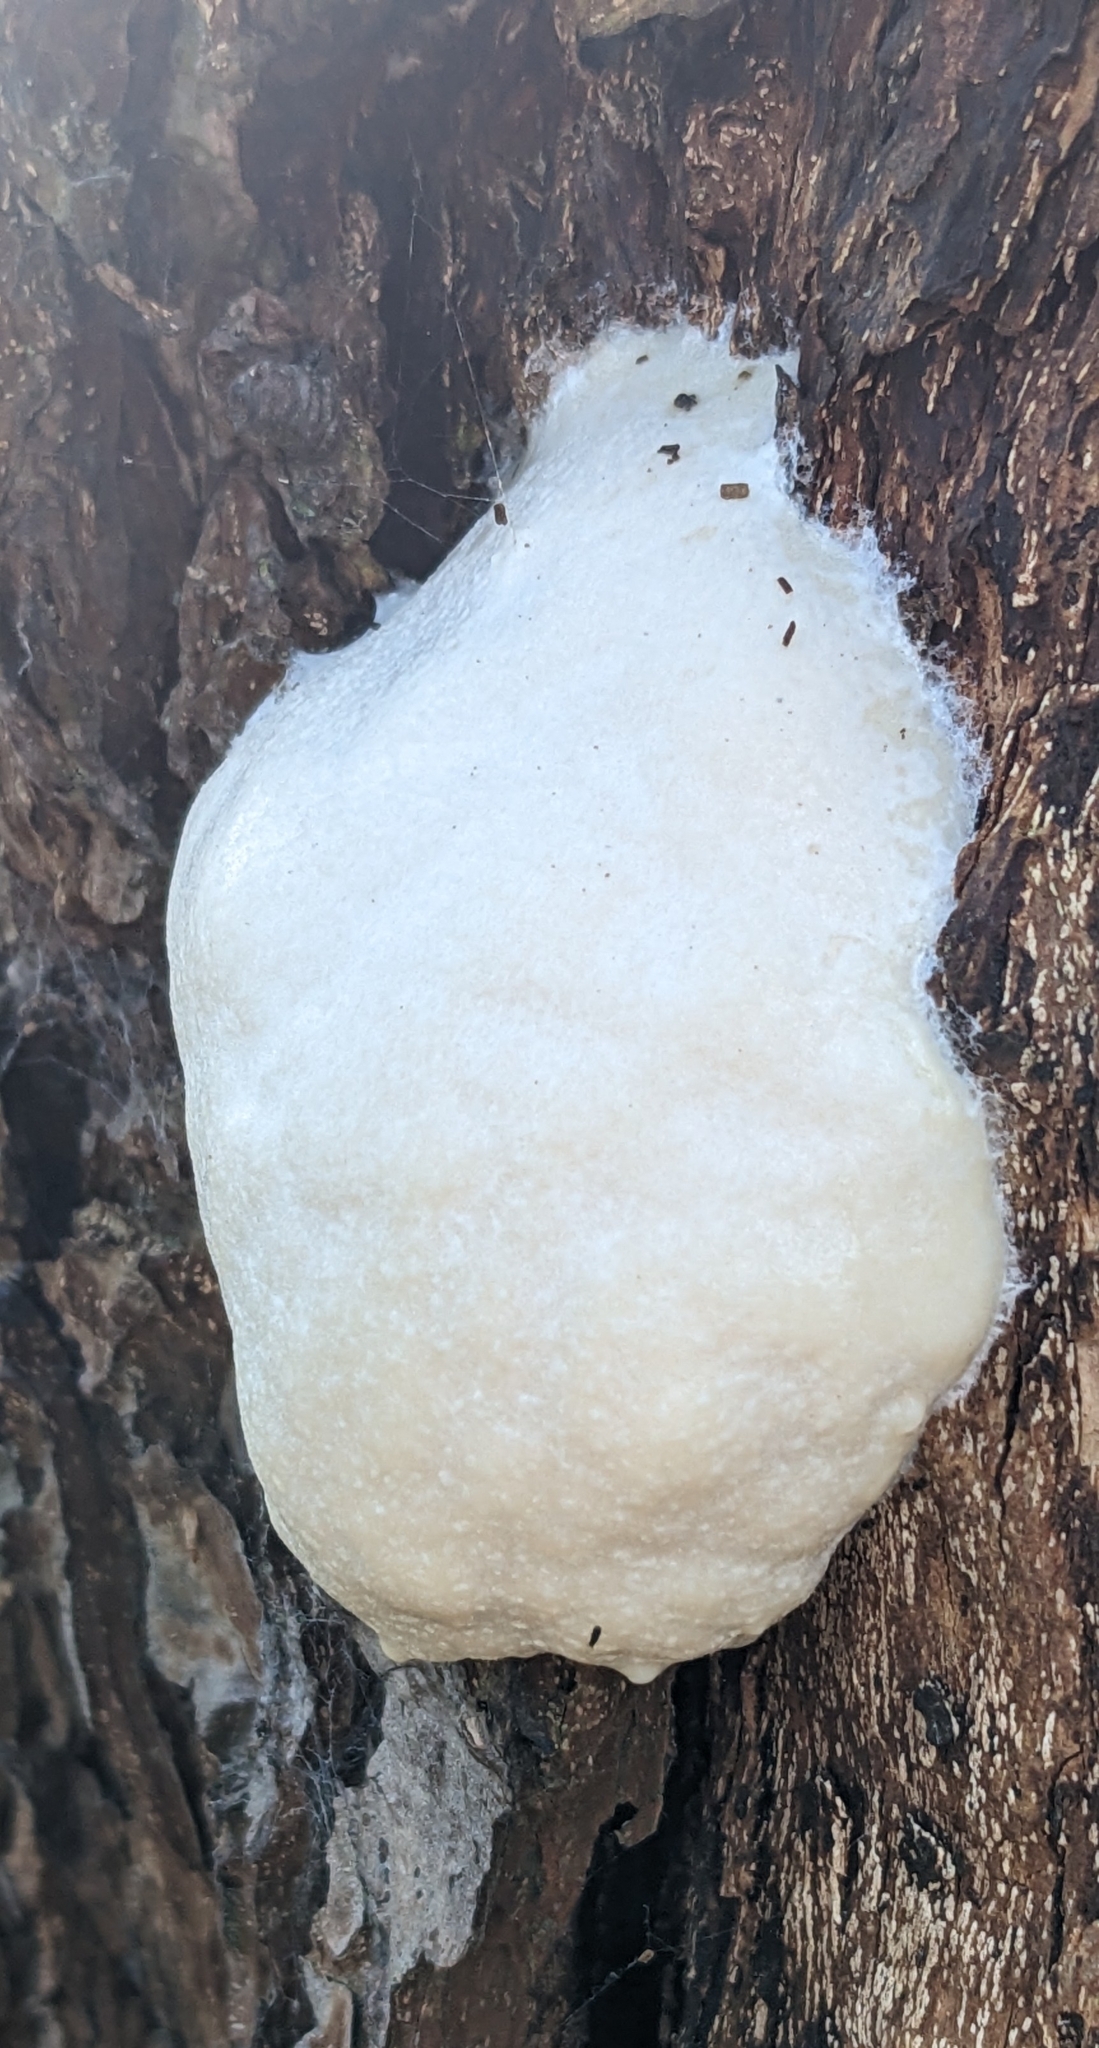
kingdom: Protozoa
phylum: Mycetozoa
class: Myxomycetes
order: Cribrariales
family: Tubiferaceae
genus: Reticularia
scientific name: Reticularia lycoperdon
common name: False puffball
